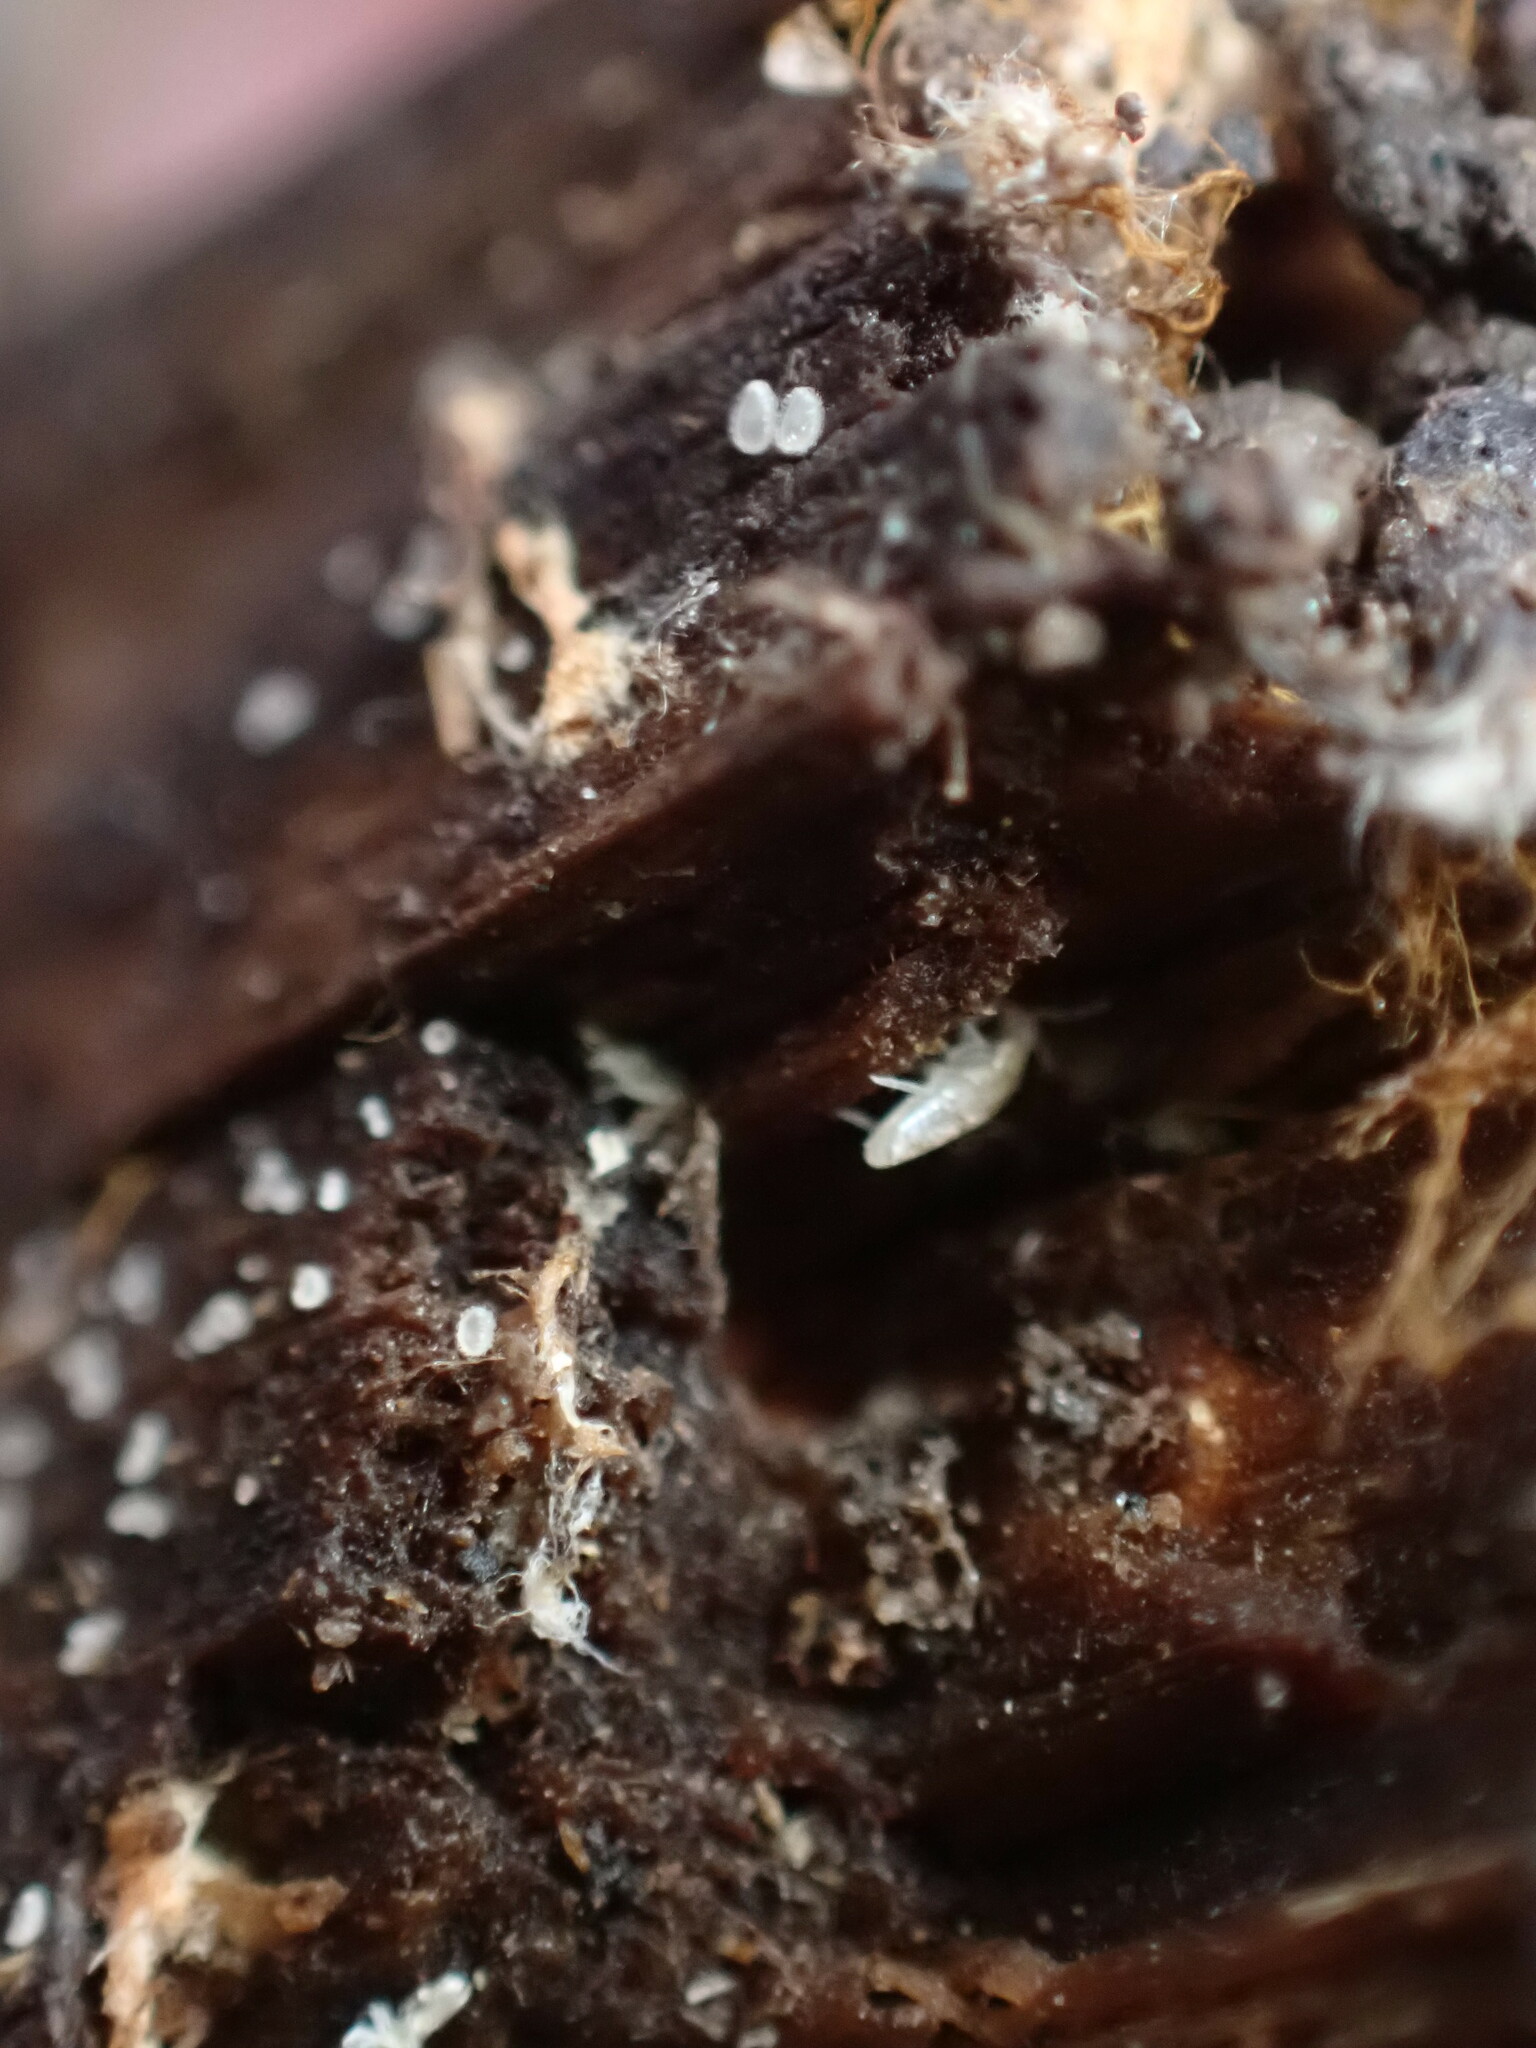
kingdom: Animalia
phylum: Arthropoda
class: Collembola
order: Entomobryomorpha
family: Entomobryidae
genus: Pseudosinella
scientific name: Pseudosinella rolfsi
